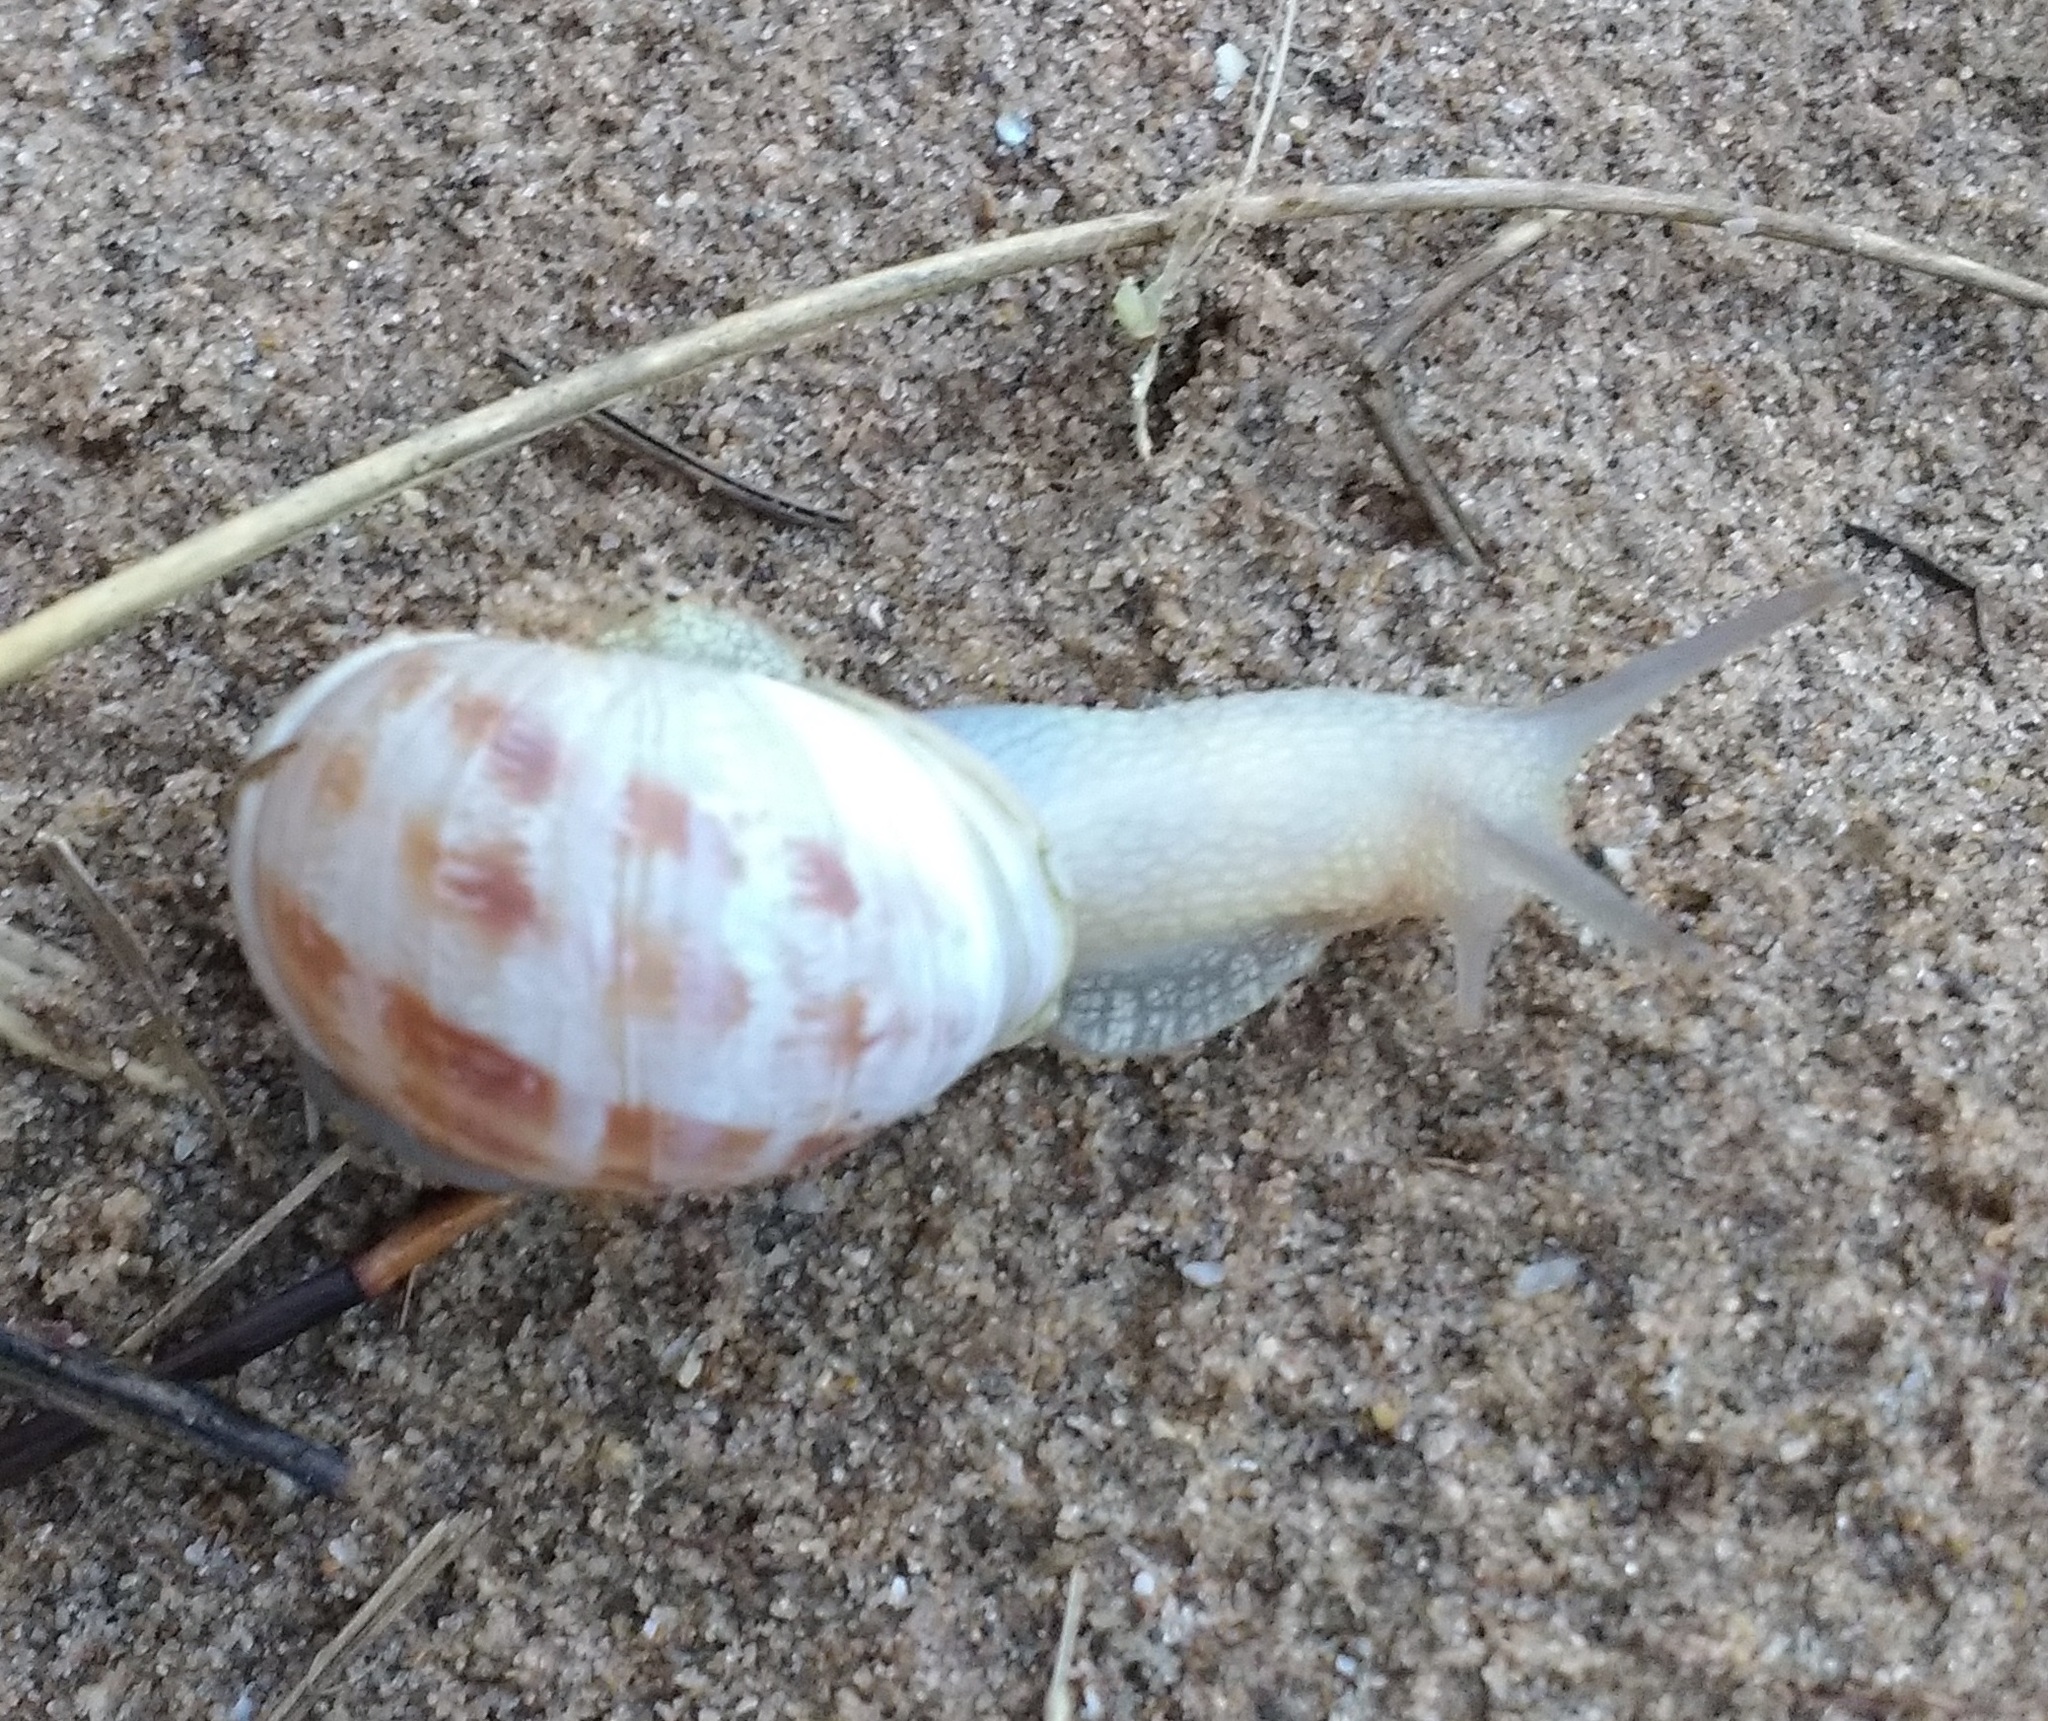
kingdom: Animalia
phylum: Mollusca
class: Gastropoda
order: Stylommatophora
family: Helicidae
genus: Cornu
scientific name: Cornu aspersum
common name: Brown garden snail
